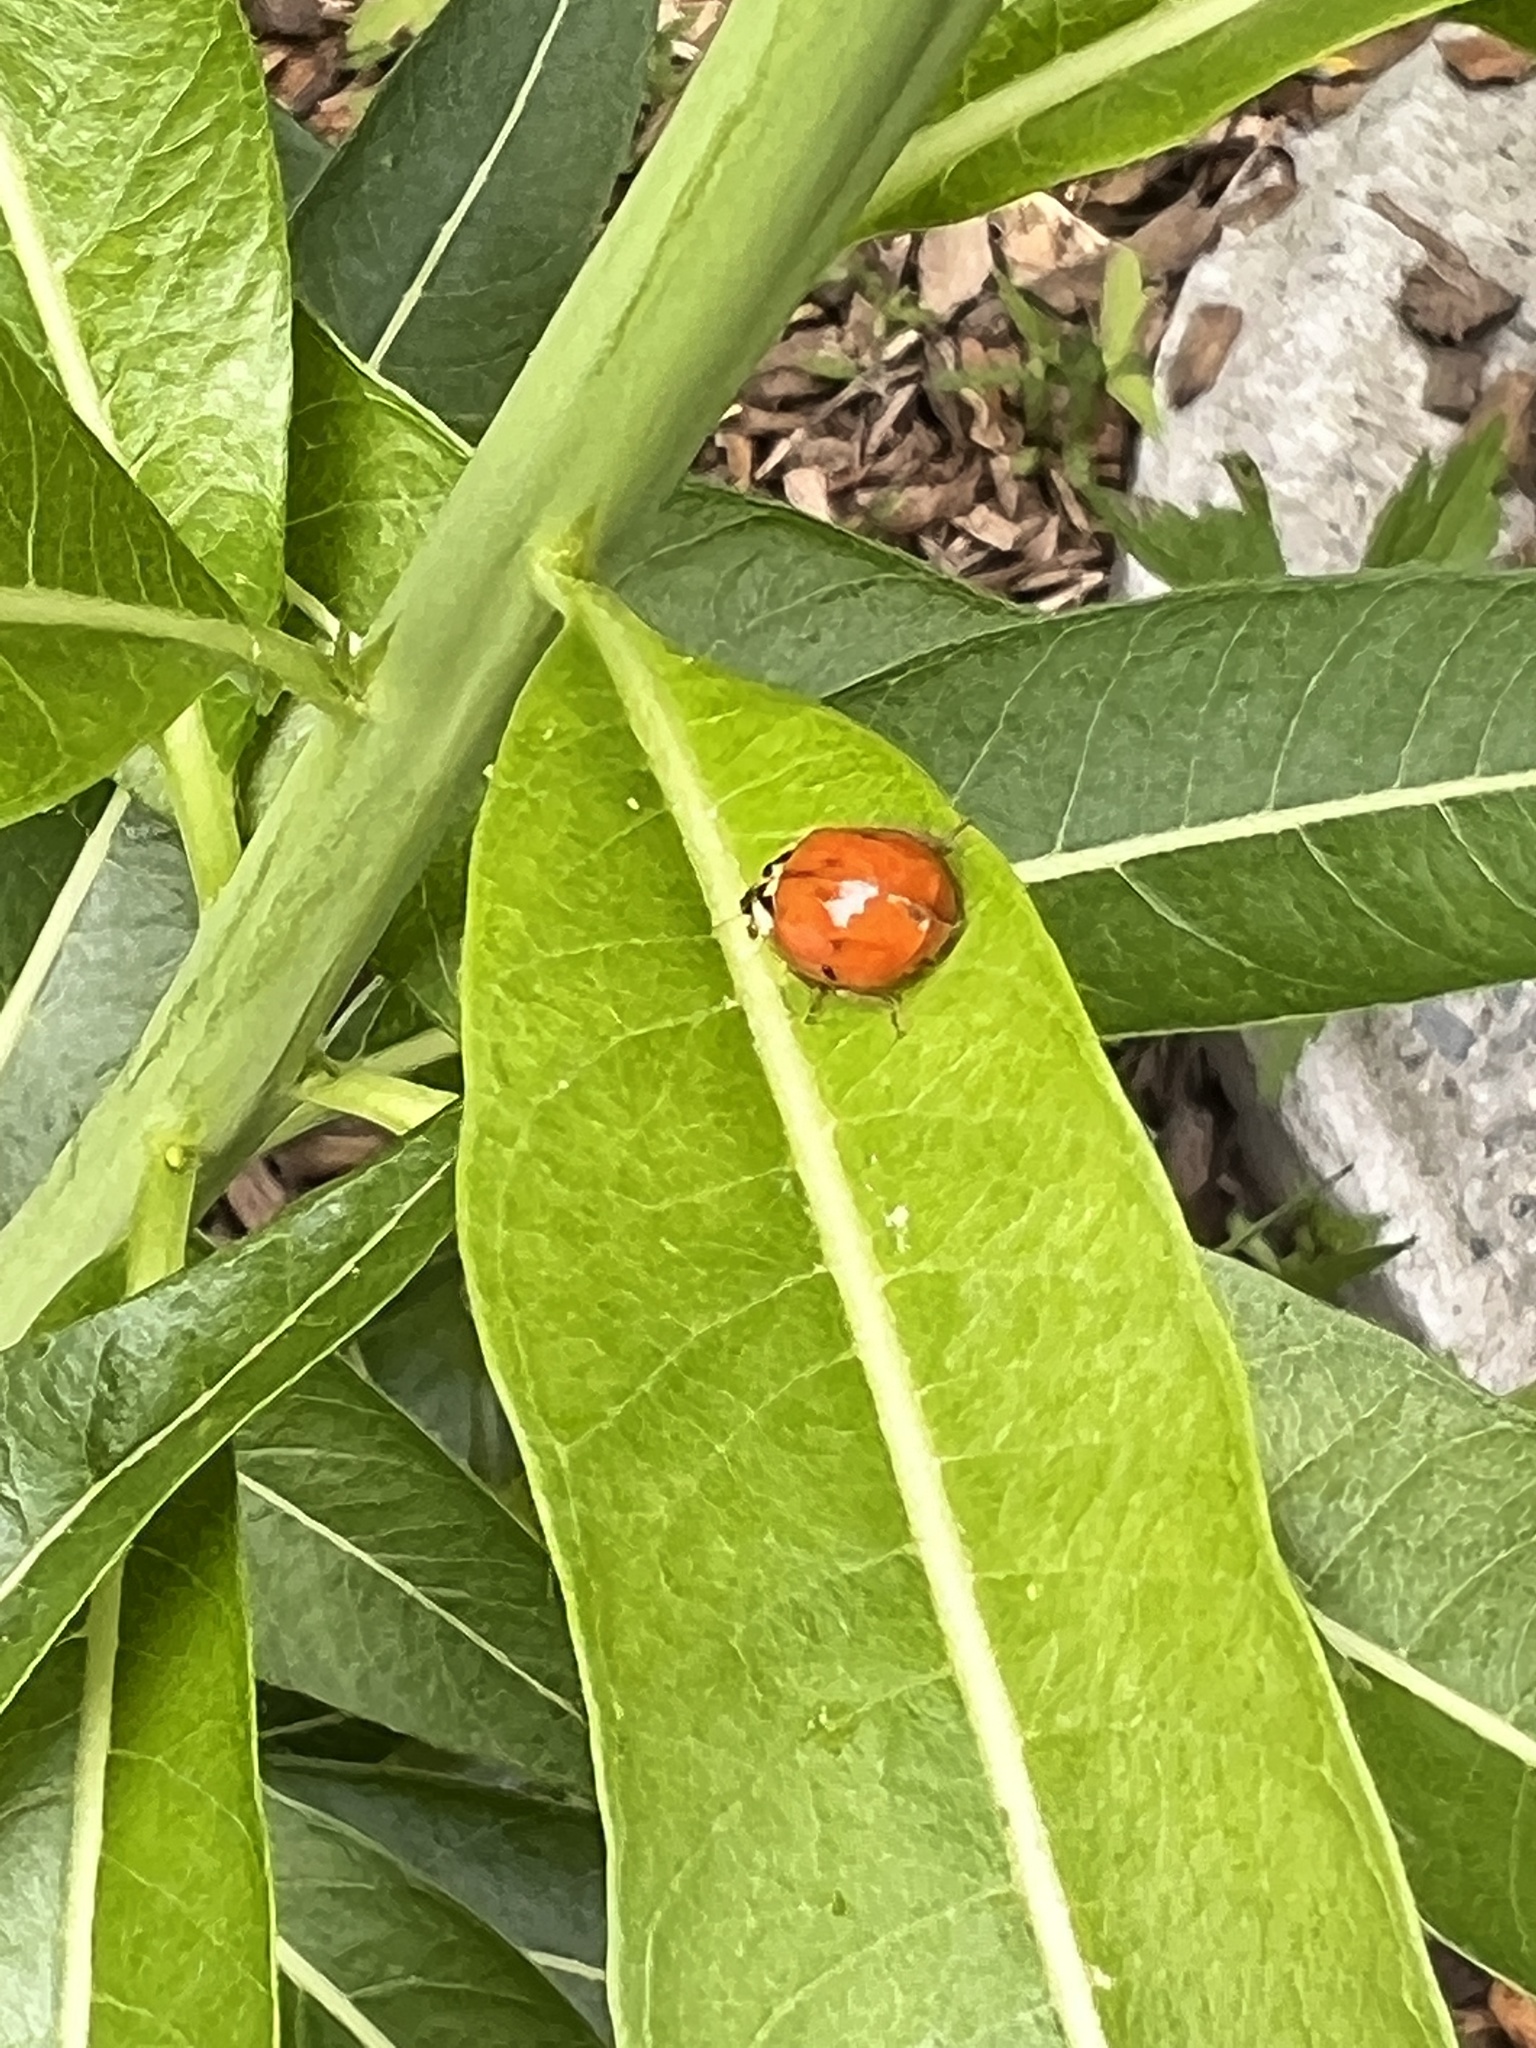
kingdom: Animalia
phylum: Arthropoda
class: Insecta
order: Coleoptera
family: Coccinellidae
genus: Harmonia
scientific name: Harmonia axyridis
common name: Harlequin ladybird
